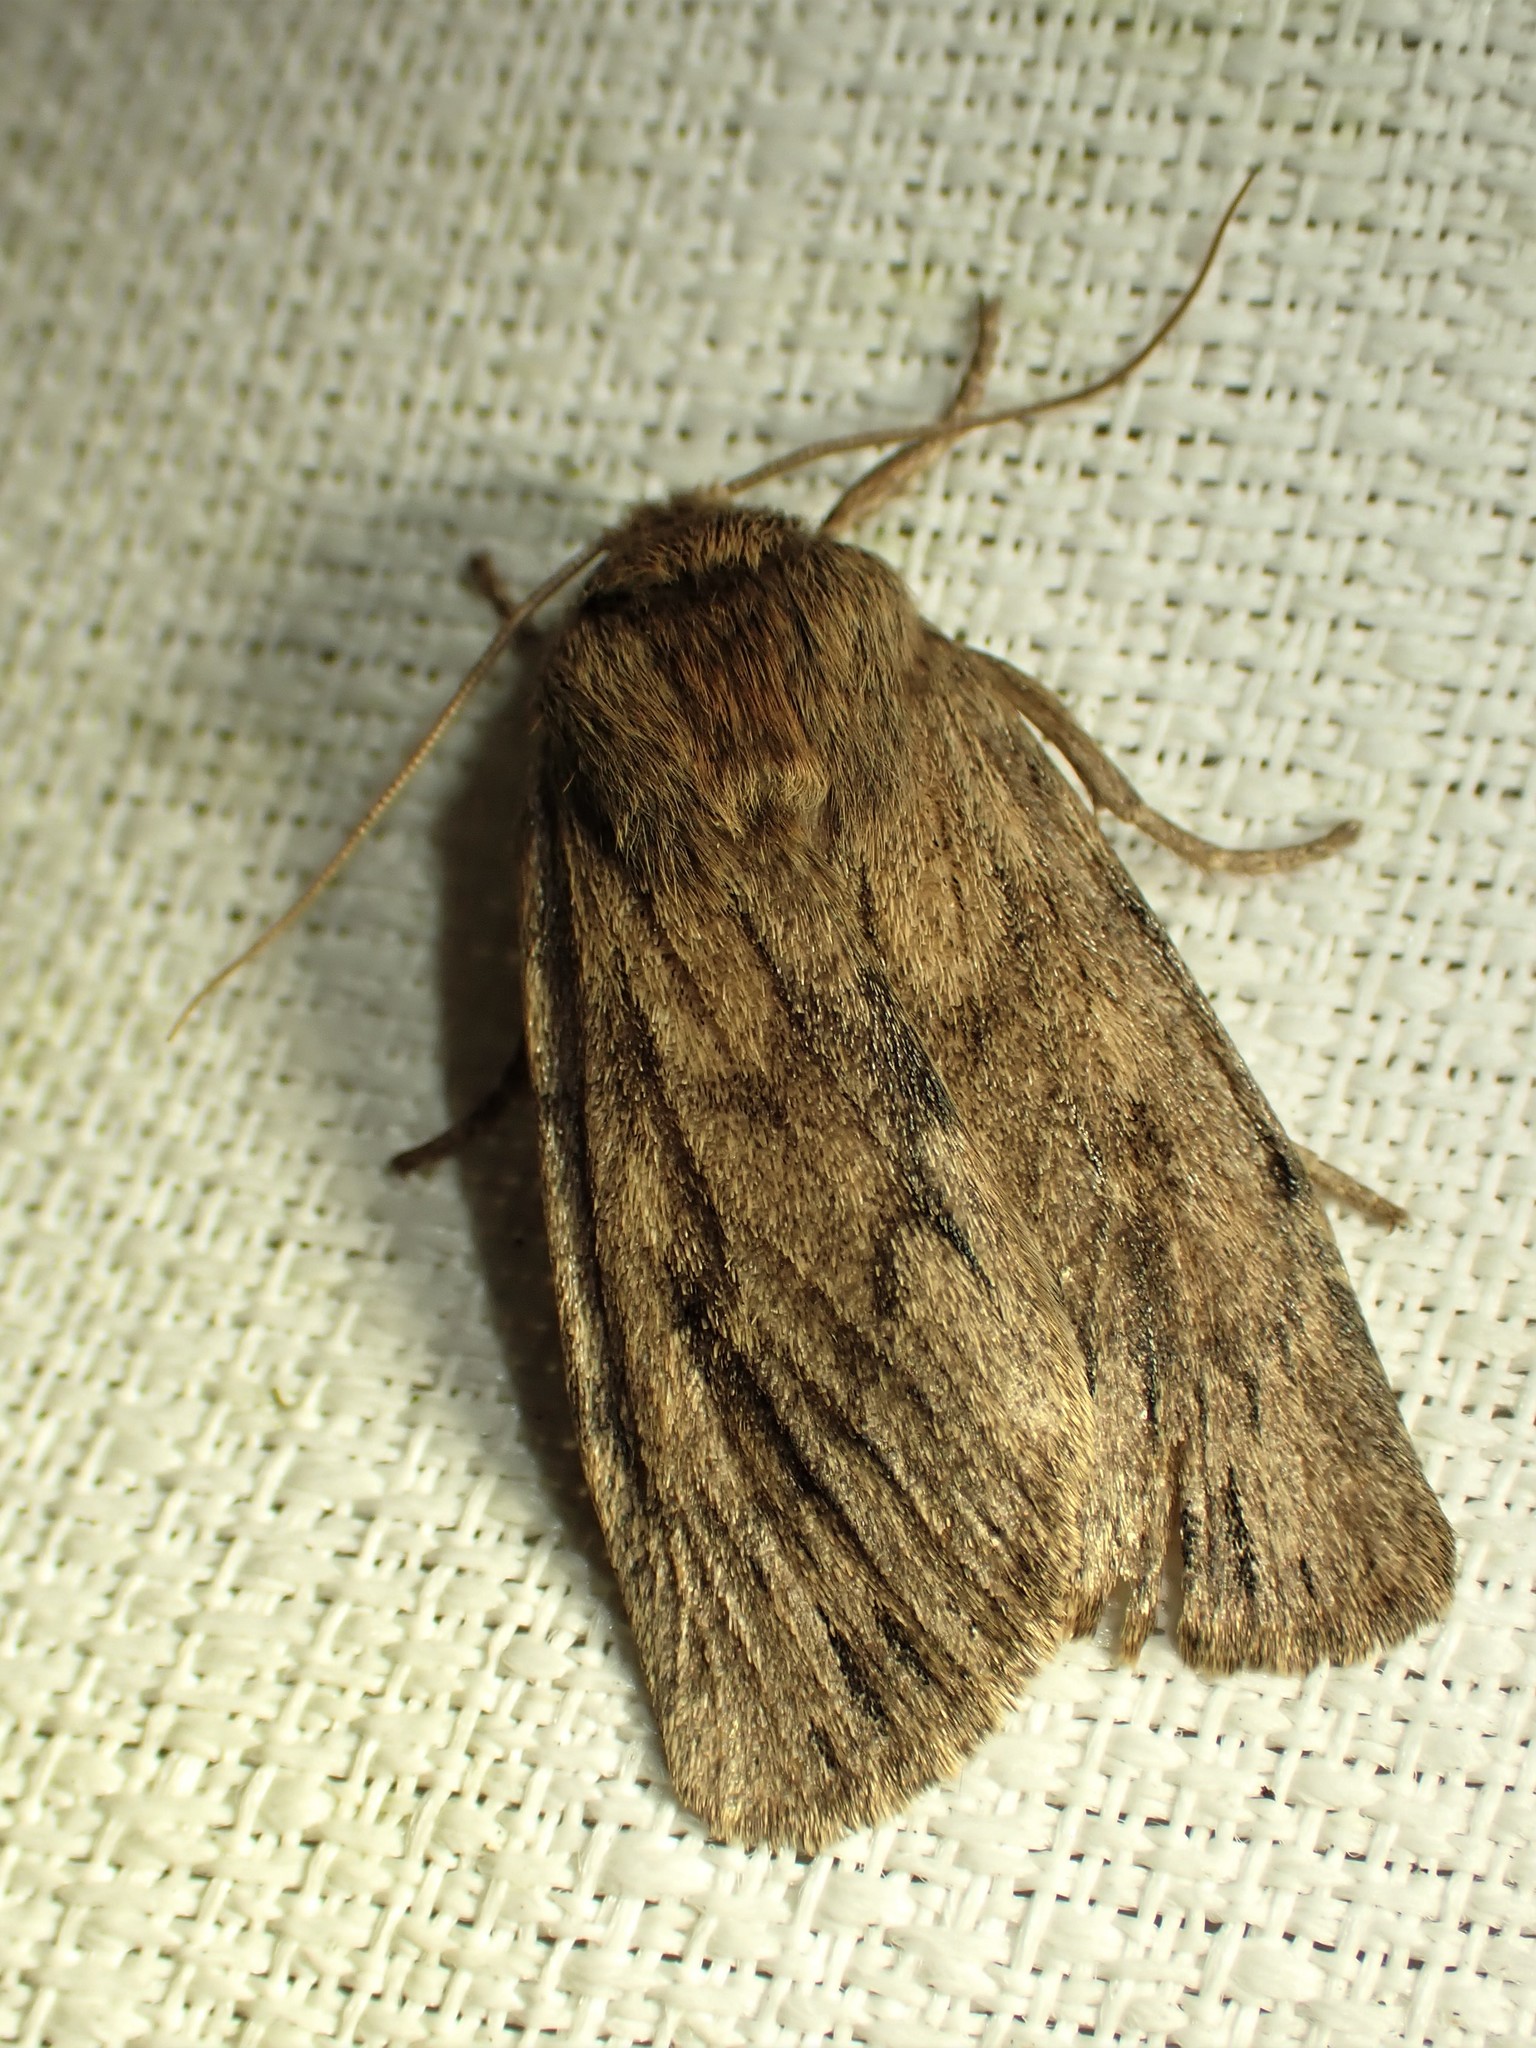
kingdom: Animalia
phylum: Arthropoda
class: Insecta
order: Lepidoptera
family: Noctuidae
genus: Ufeus
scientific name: Ufeus satyricus
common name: Brown satyr moth
